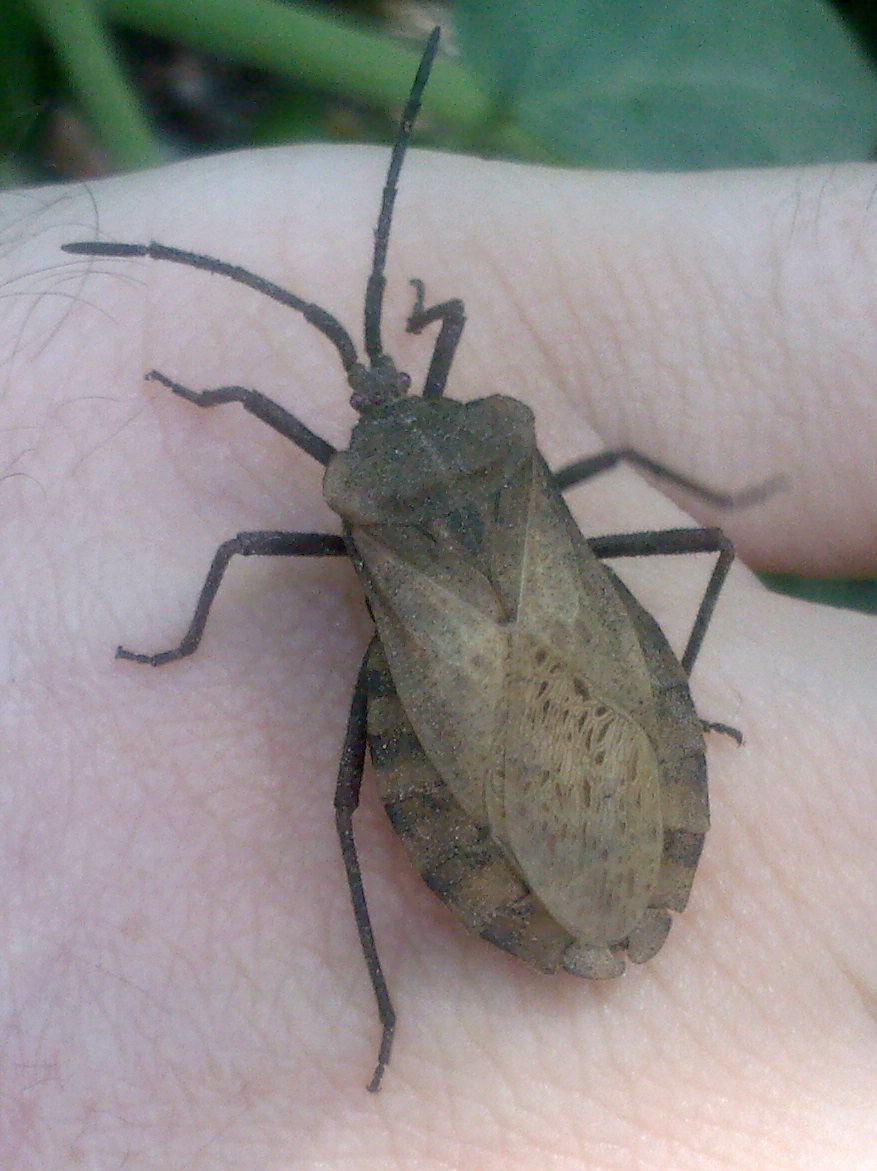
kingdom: Animalia
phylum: Arthropoda
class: Insecta
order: Hemiptera
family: Coreidae
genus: Spartocera
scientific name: Spartocera fusca
